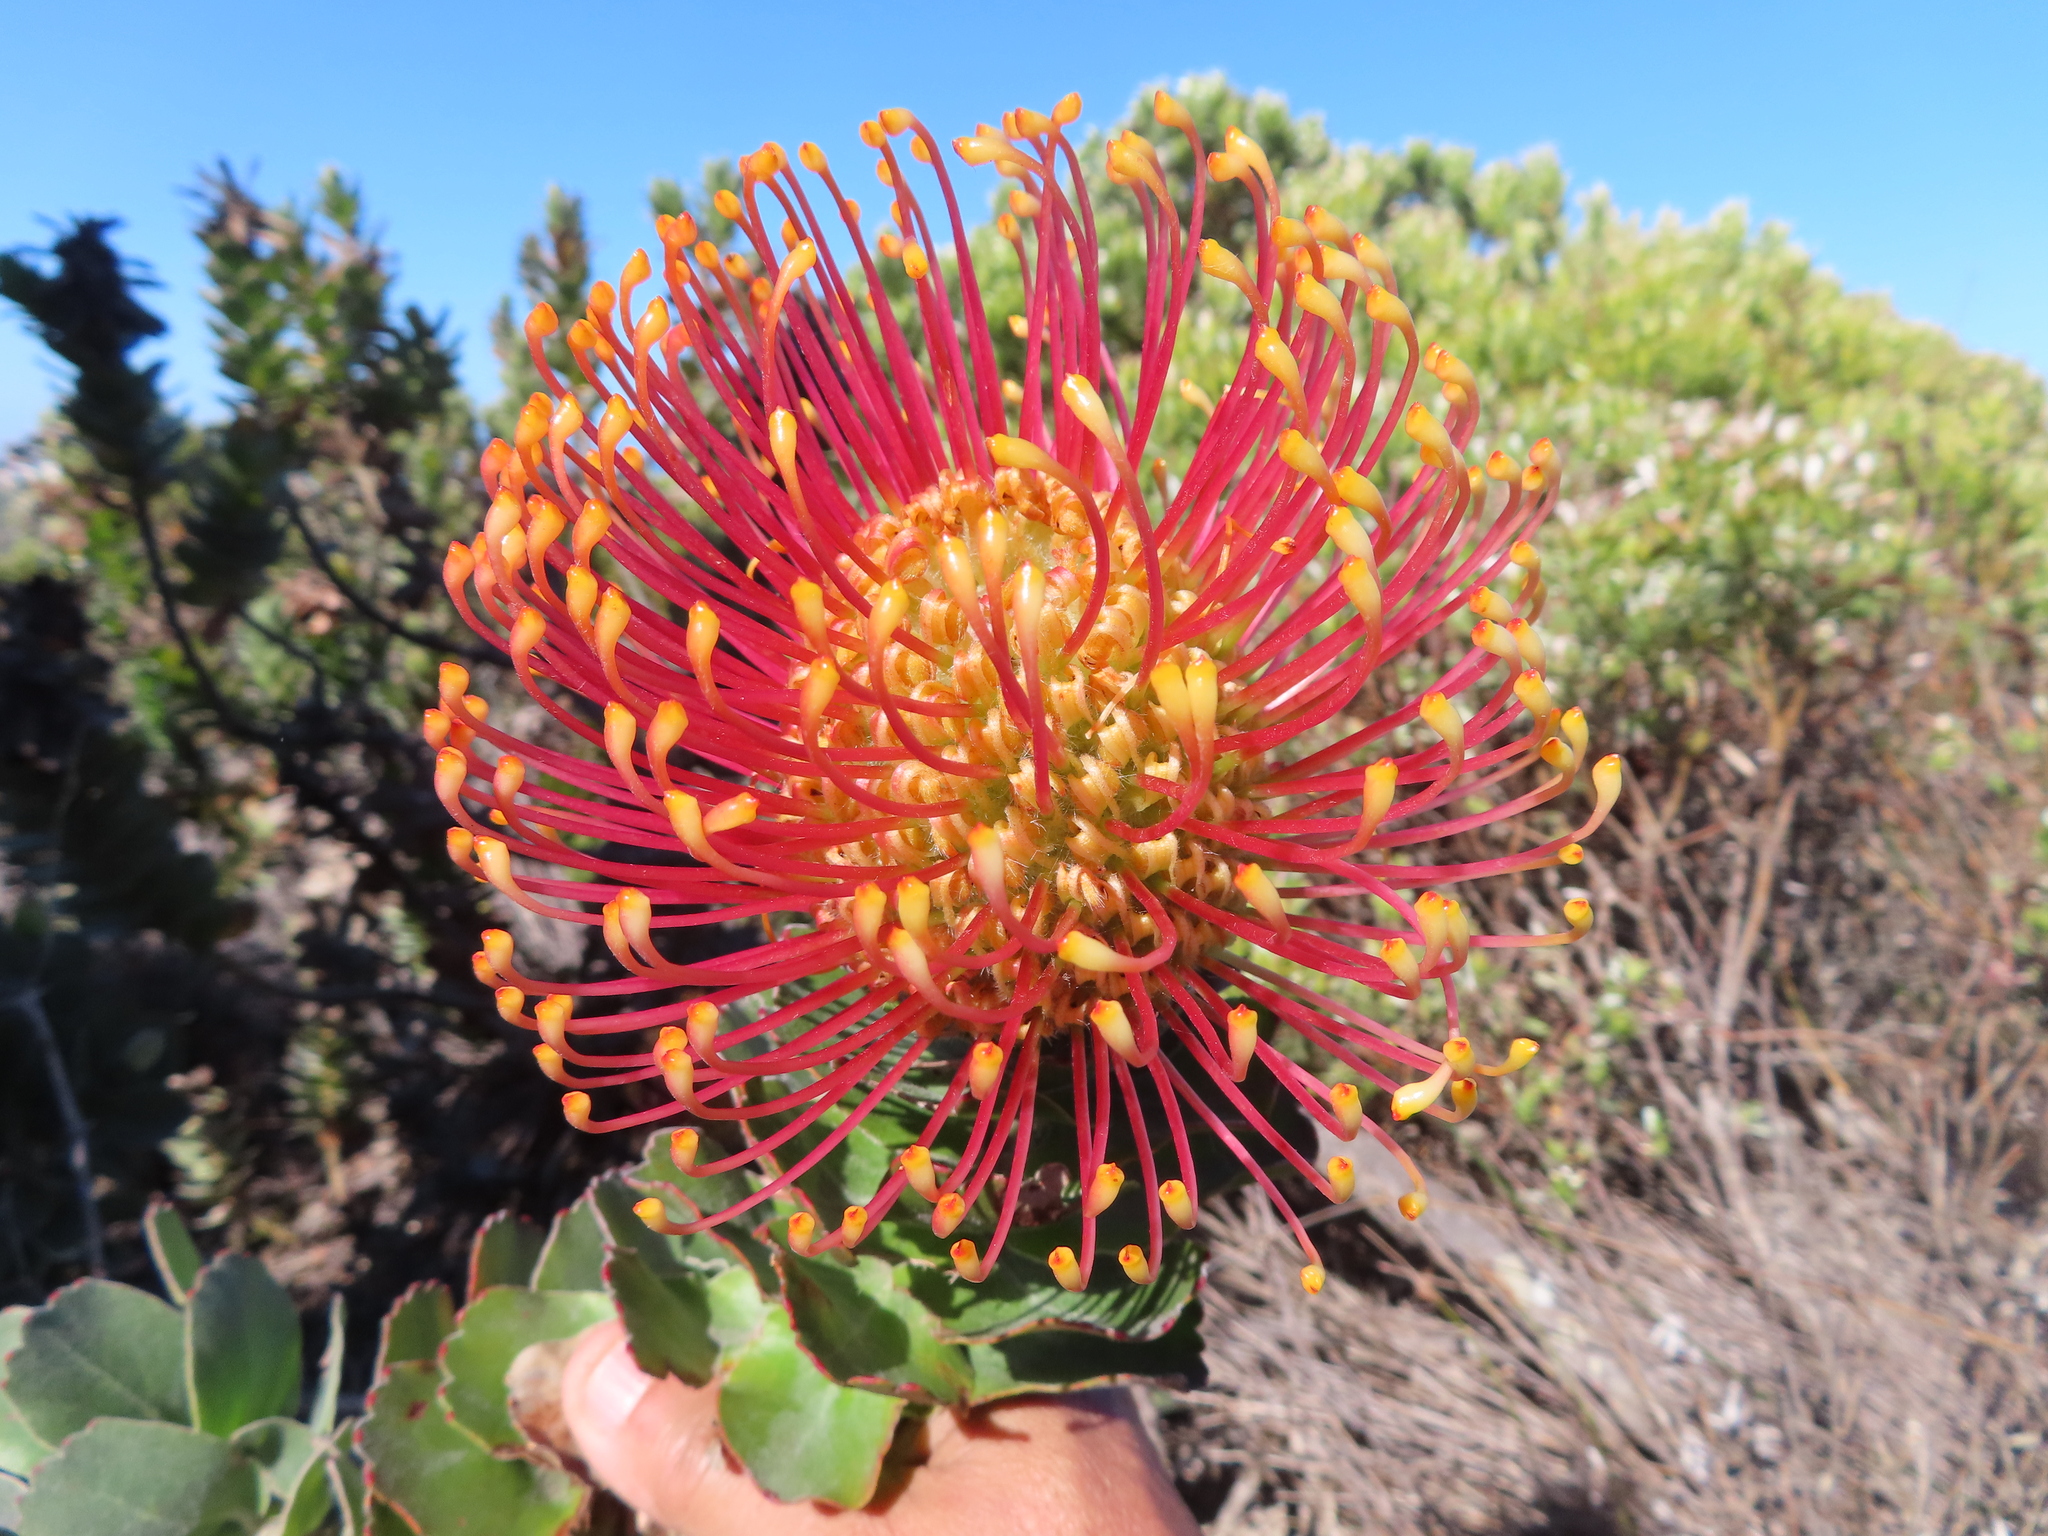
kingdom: Plantae
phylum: Tracheophyta
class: Magnoliopsida
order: Proteales
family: Proteaceae
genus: Leucospermum
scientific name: Leucospermum patersonii
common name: False tree pincushion
